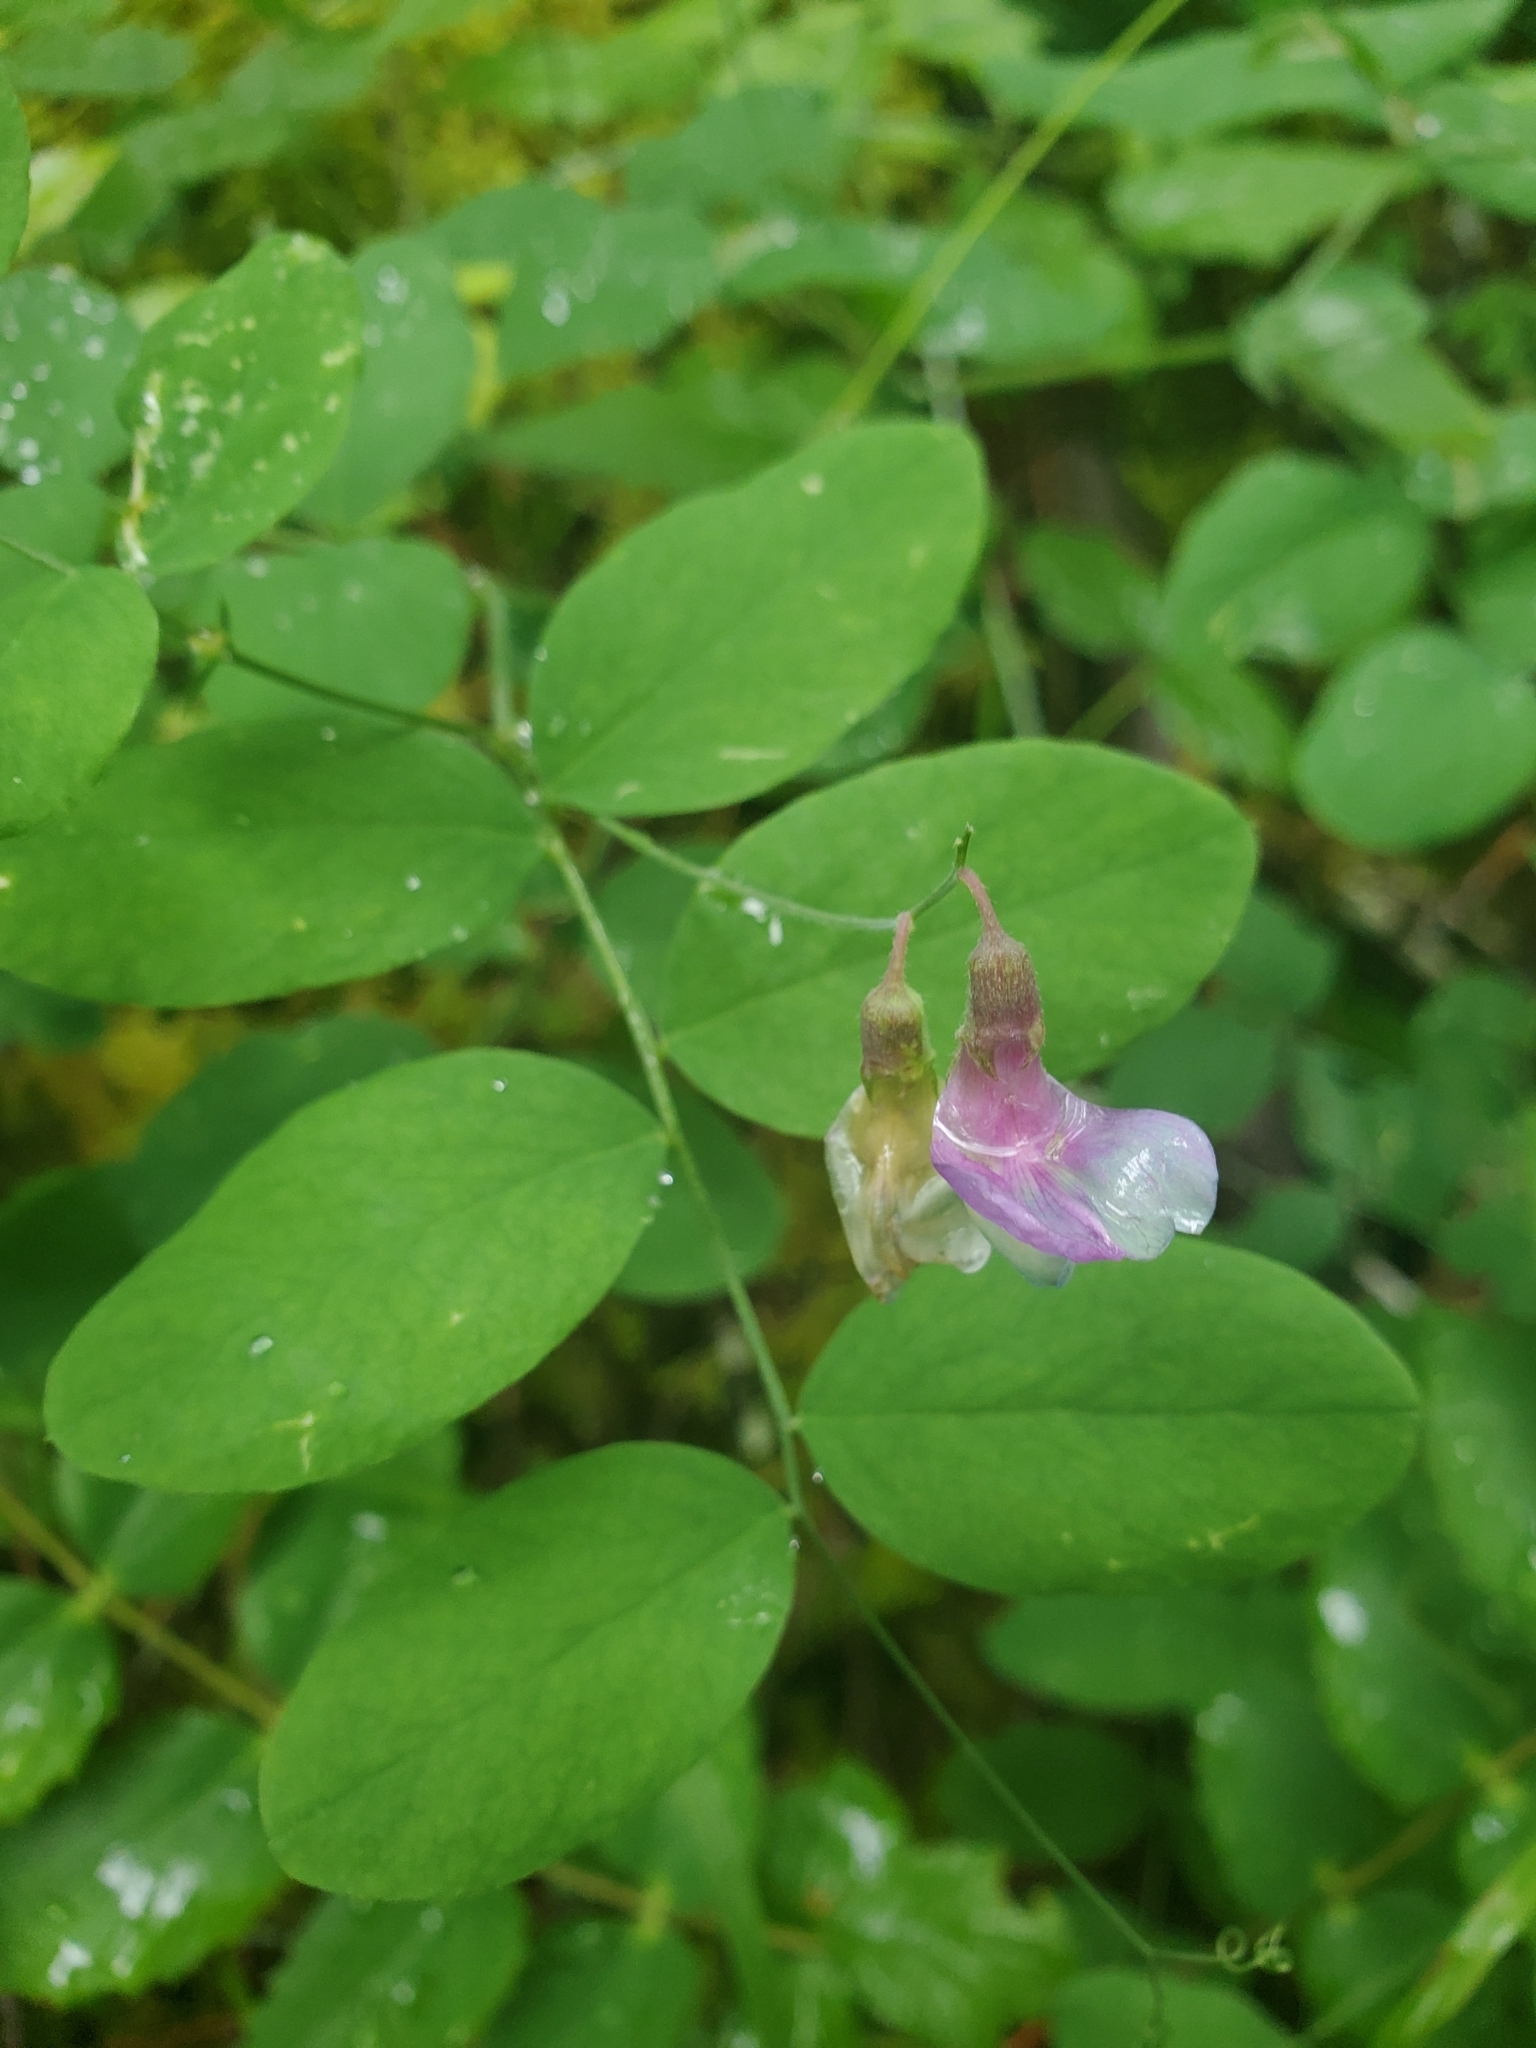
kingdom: Plantae
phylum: Tracheophyta
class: Magnoliopsida
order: Fabales
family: Fabaceae
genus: Lathyrus
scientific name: Lathyrus nevadensis
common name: Sierra nevada peavine
